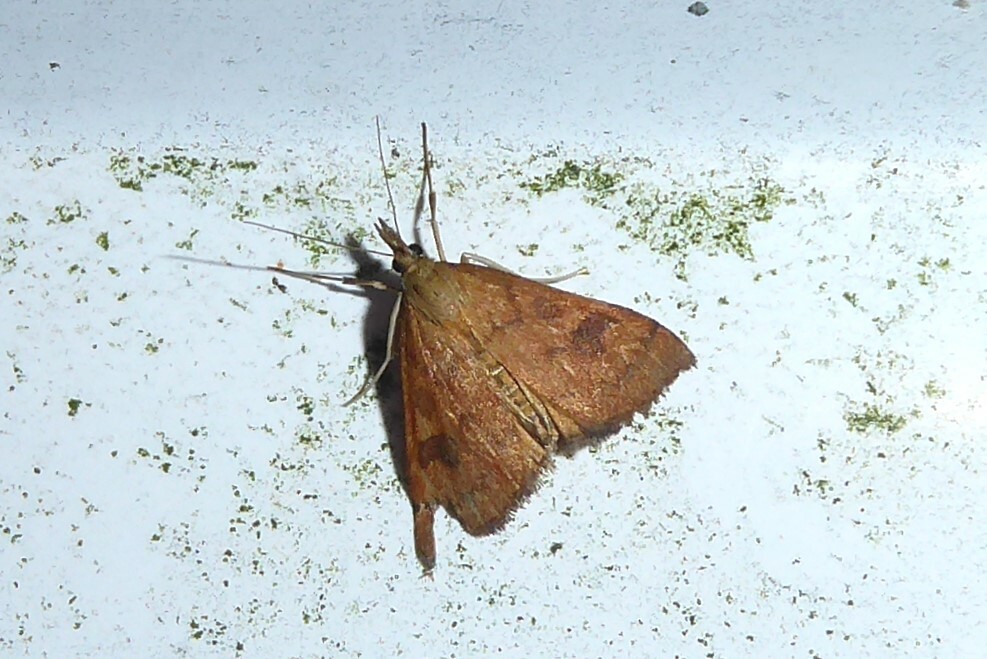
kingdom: Animalia
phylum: Arthropoda
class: Insecta
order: Lepidoptera
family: Crambidae
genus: Udea
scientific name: Udea Mnesictena flavidalis
